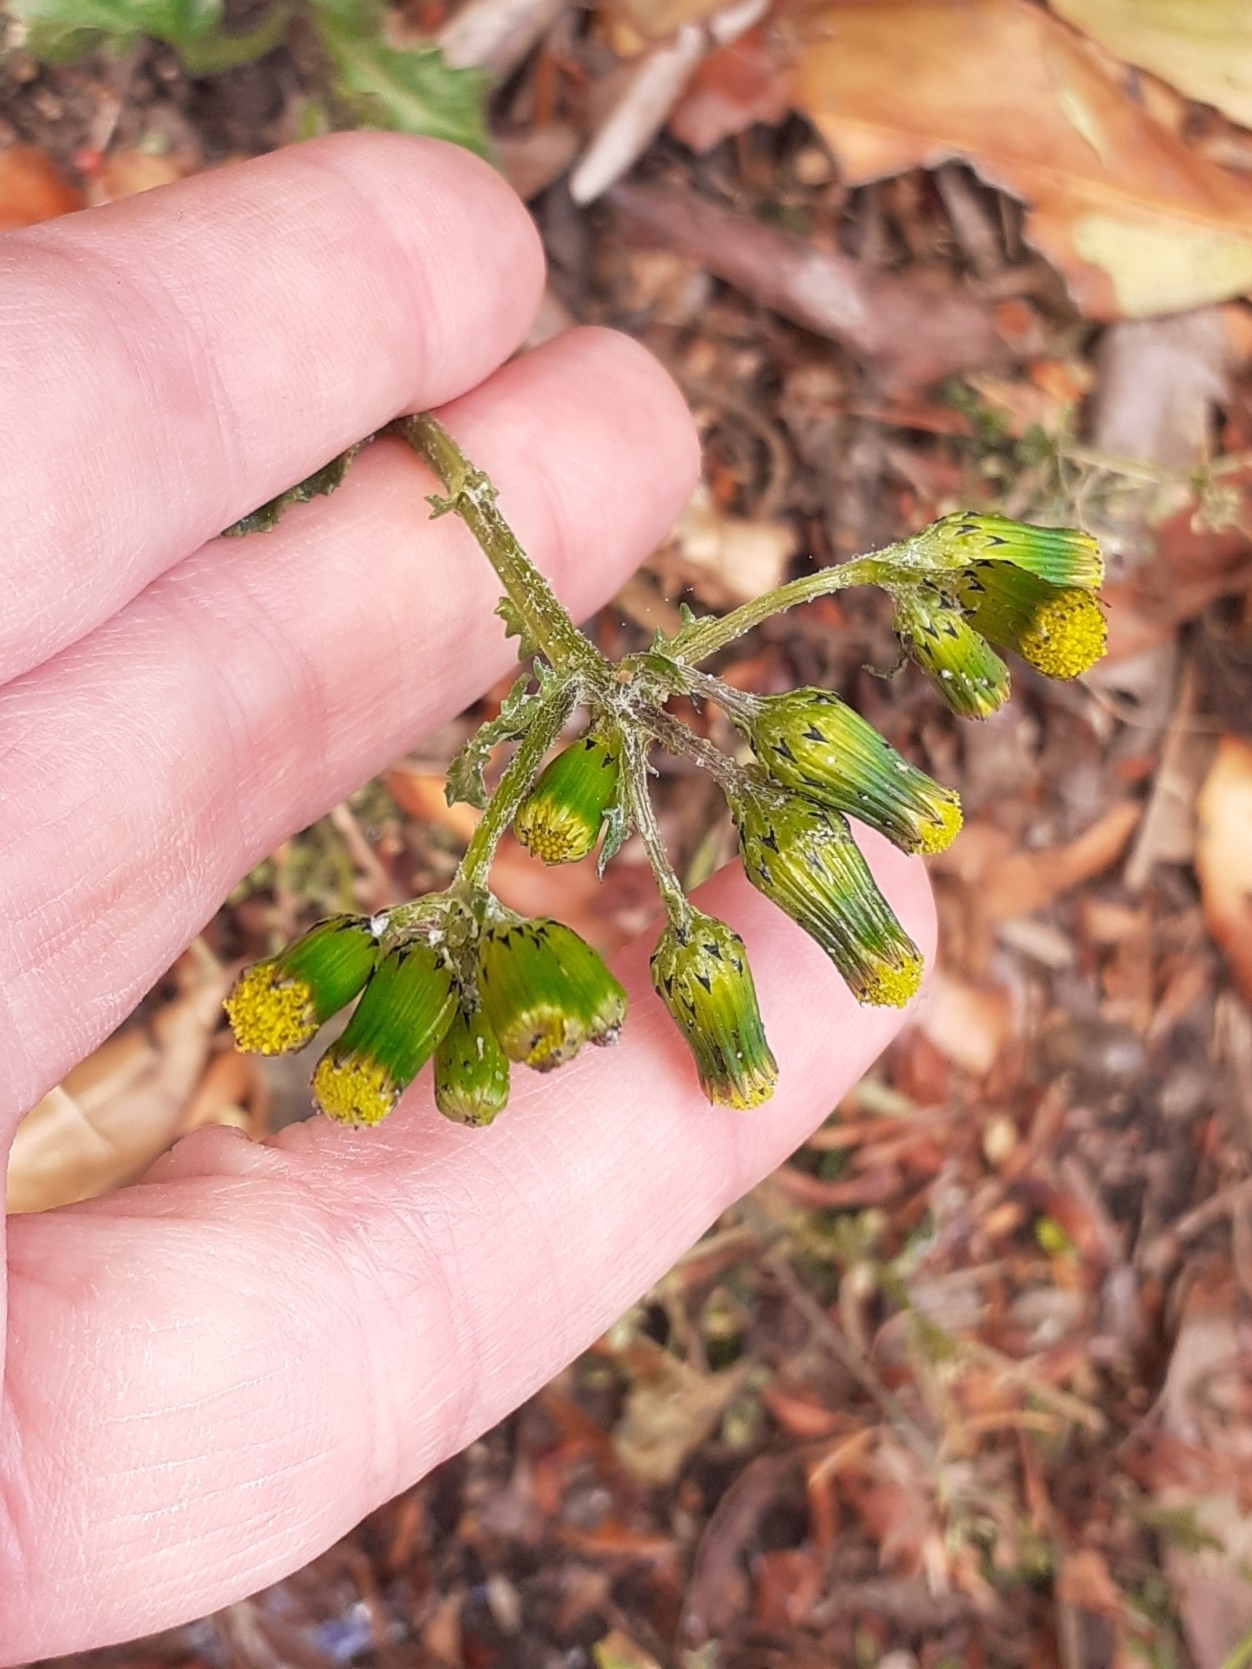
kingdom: Plantae
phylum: Tracheophyta
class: Magnoliopsida
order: Asterales
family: Asteraceae
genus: Senecio
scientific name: Senecio vulgaris
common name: Old-man-in-the-spring
